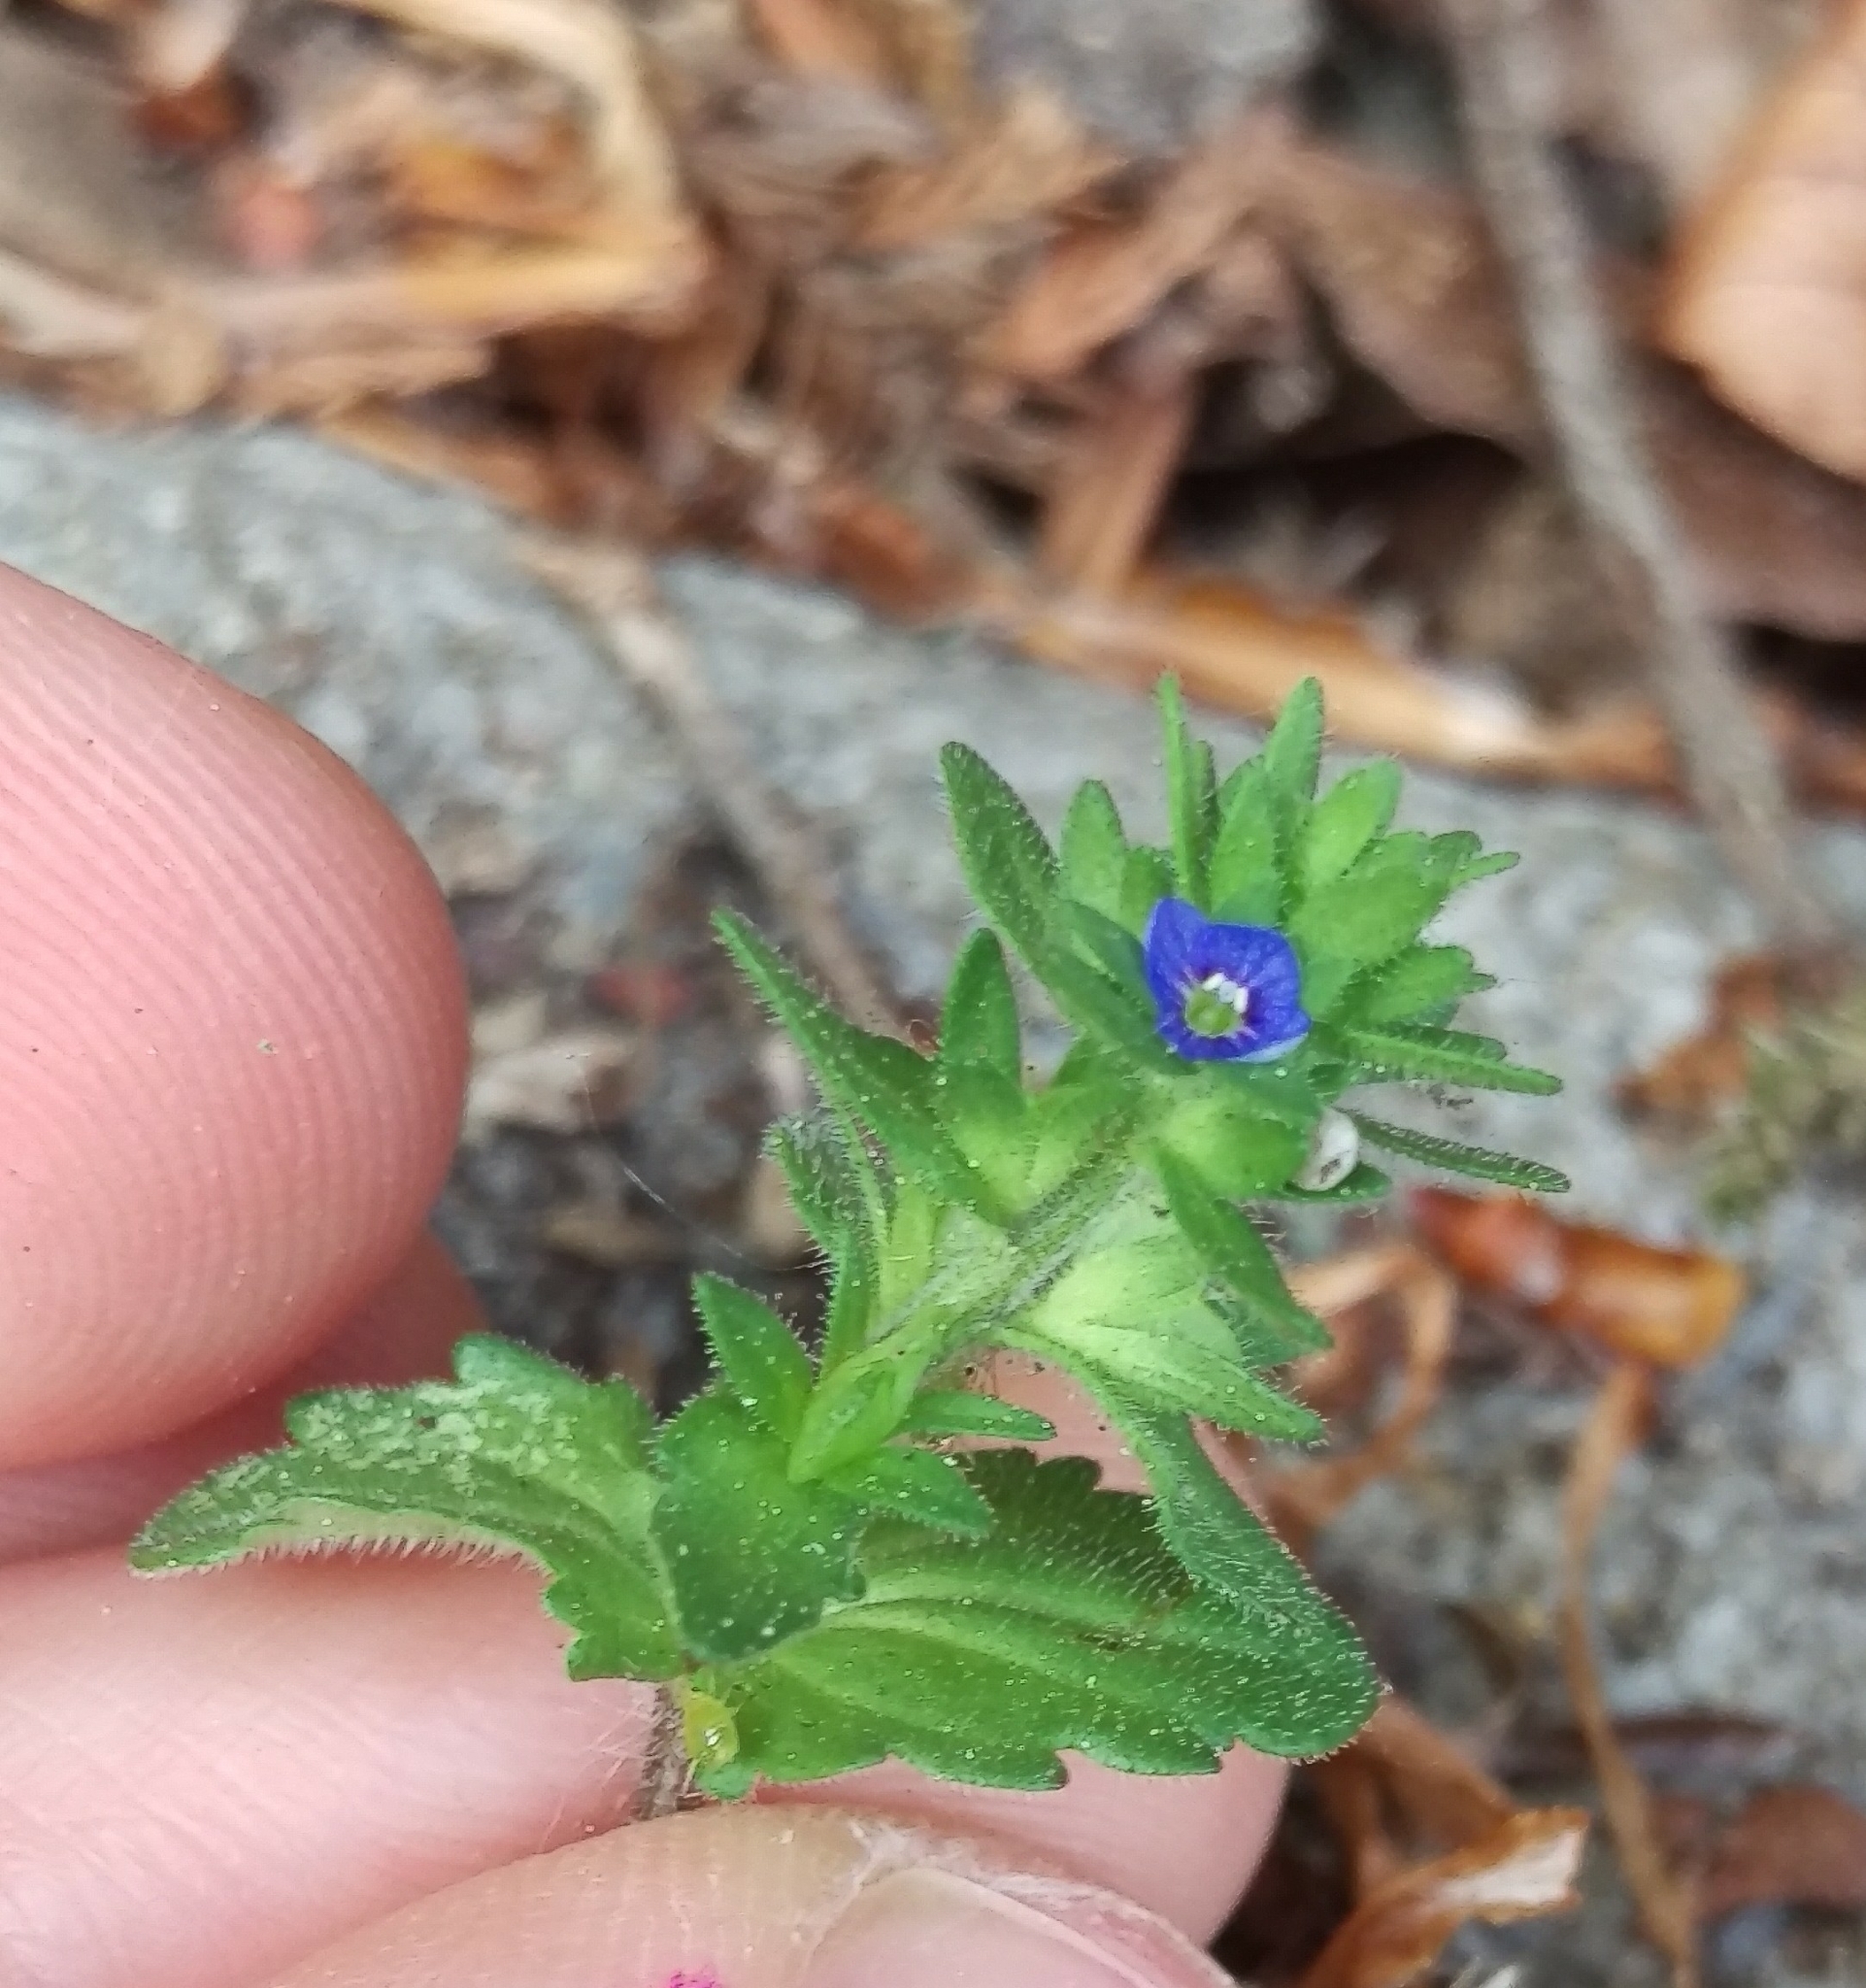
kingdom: Plantae
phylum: Tracheophyta
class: Magnoliopsida
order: Lamiales
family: Plantaginaceae
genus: Veronica
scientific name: Veronica arvensis
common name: Corn speedwell
